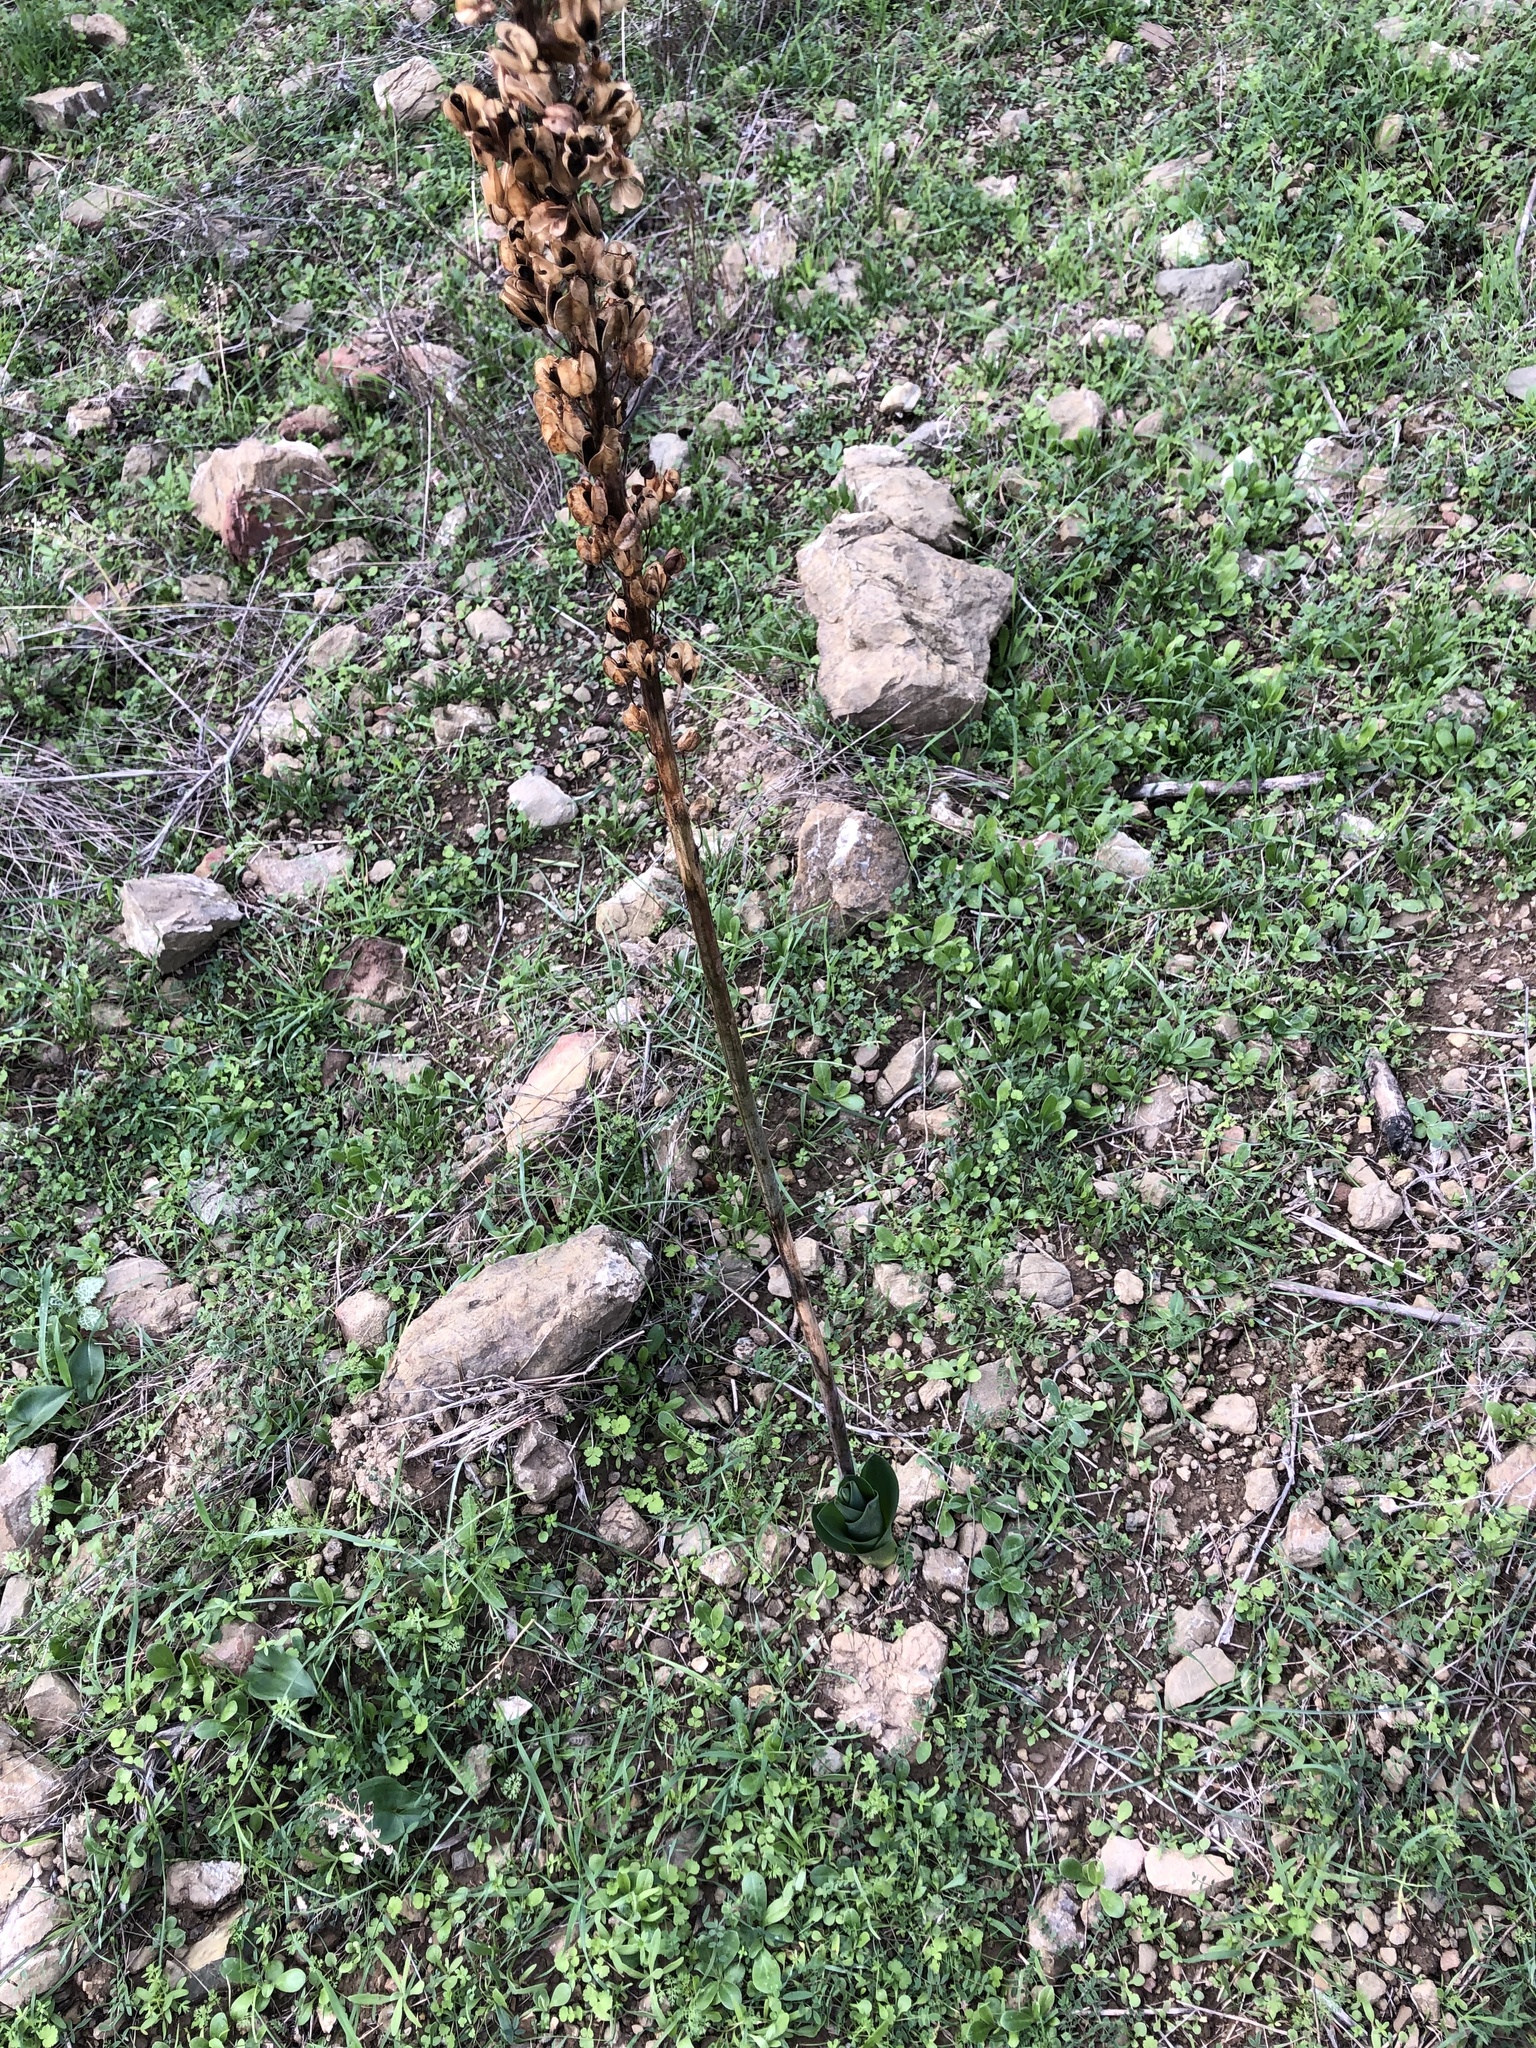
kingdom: Plantae
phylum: Tracheophyta
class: Liliopsida
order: Asparagales
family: Asparagaceae
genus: Drimia
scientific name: Drimia numidica
